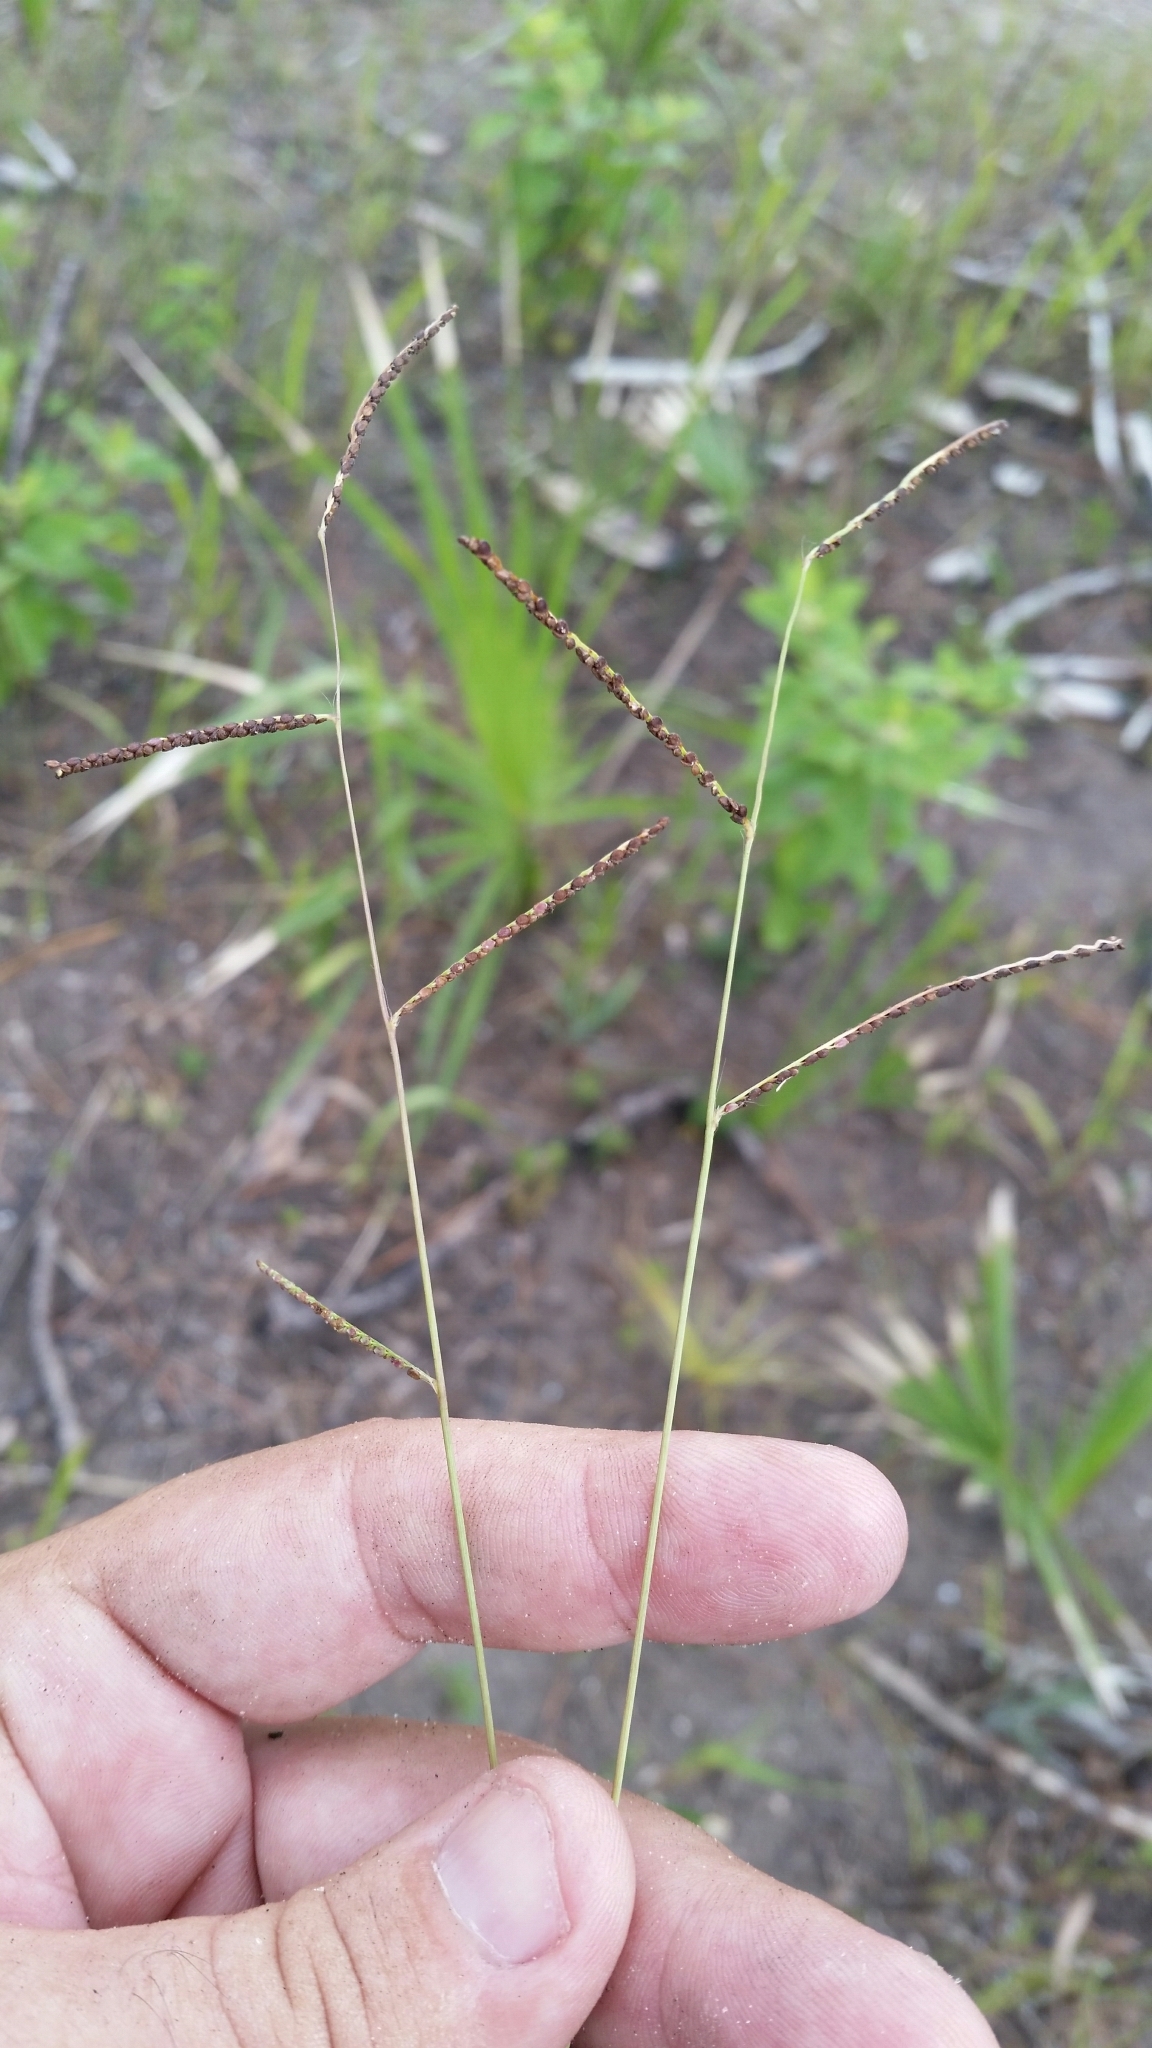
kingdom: Plantae
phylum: Tracheophyta
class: Liliopsida
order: Poales
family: Poaceae
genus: Paspalum
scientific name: Paspalum blodgettii
